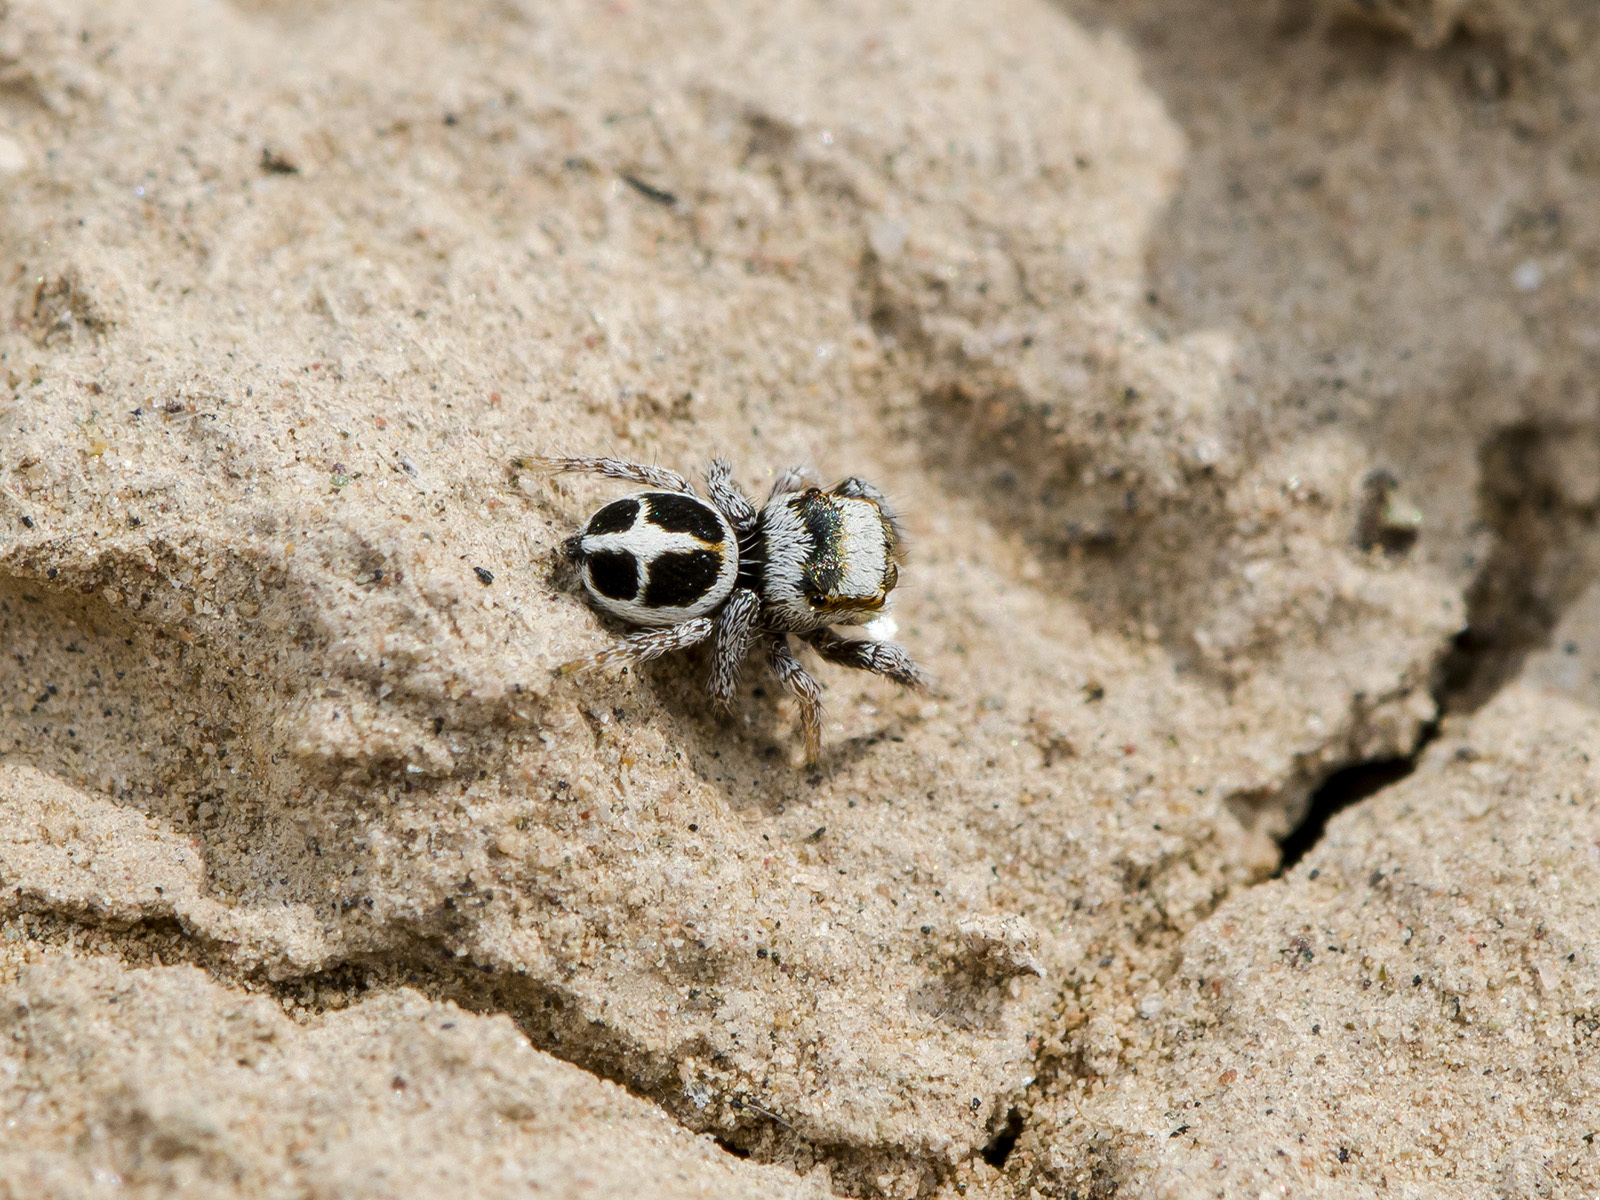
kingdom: Animalia
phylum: Arthropoda
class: Arachnida
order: Araneae
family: Salticidae
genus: Pellenes
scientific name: Pellenes geniculatus
